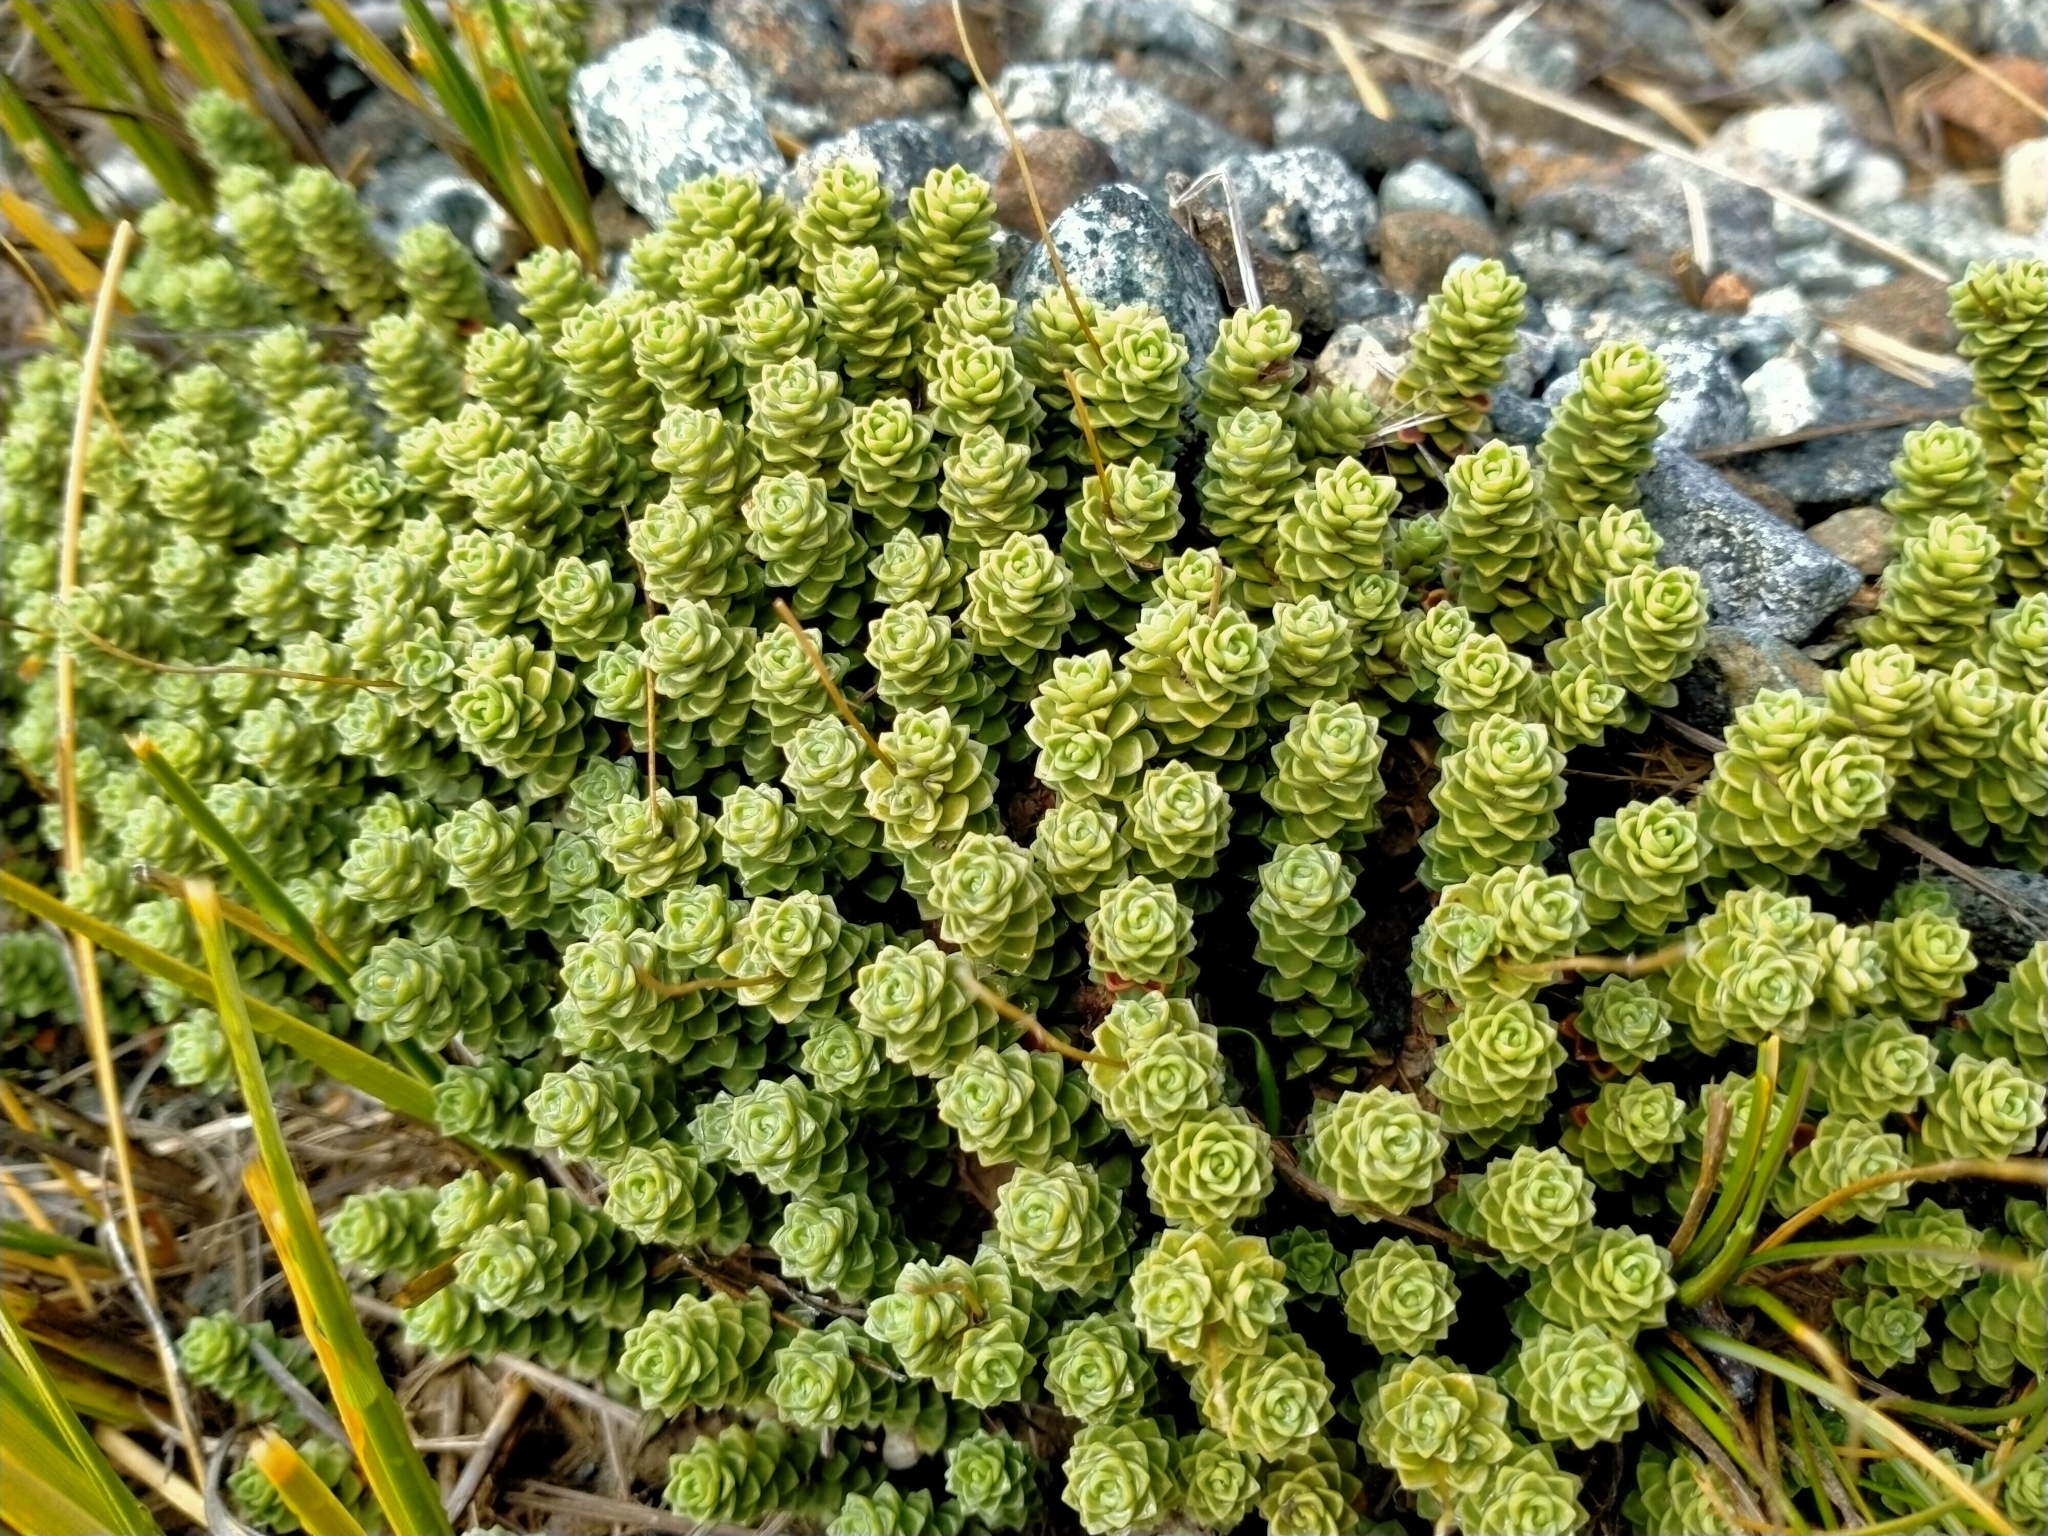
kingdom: Plantae
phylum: Tracheophyta
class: Magnoliopsida
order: Asterales
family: Stylidiaceae
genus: Forstera
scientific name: Forstera sedifolia
